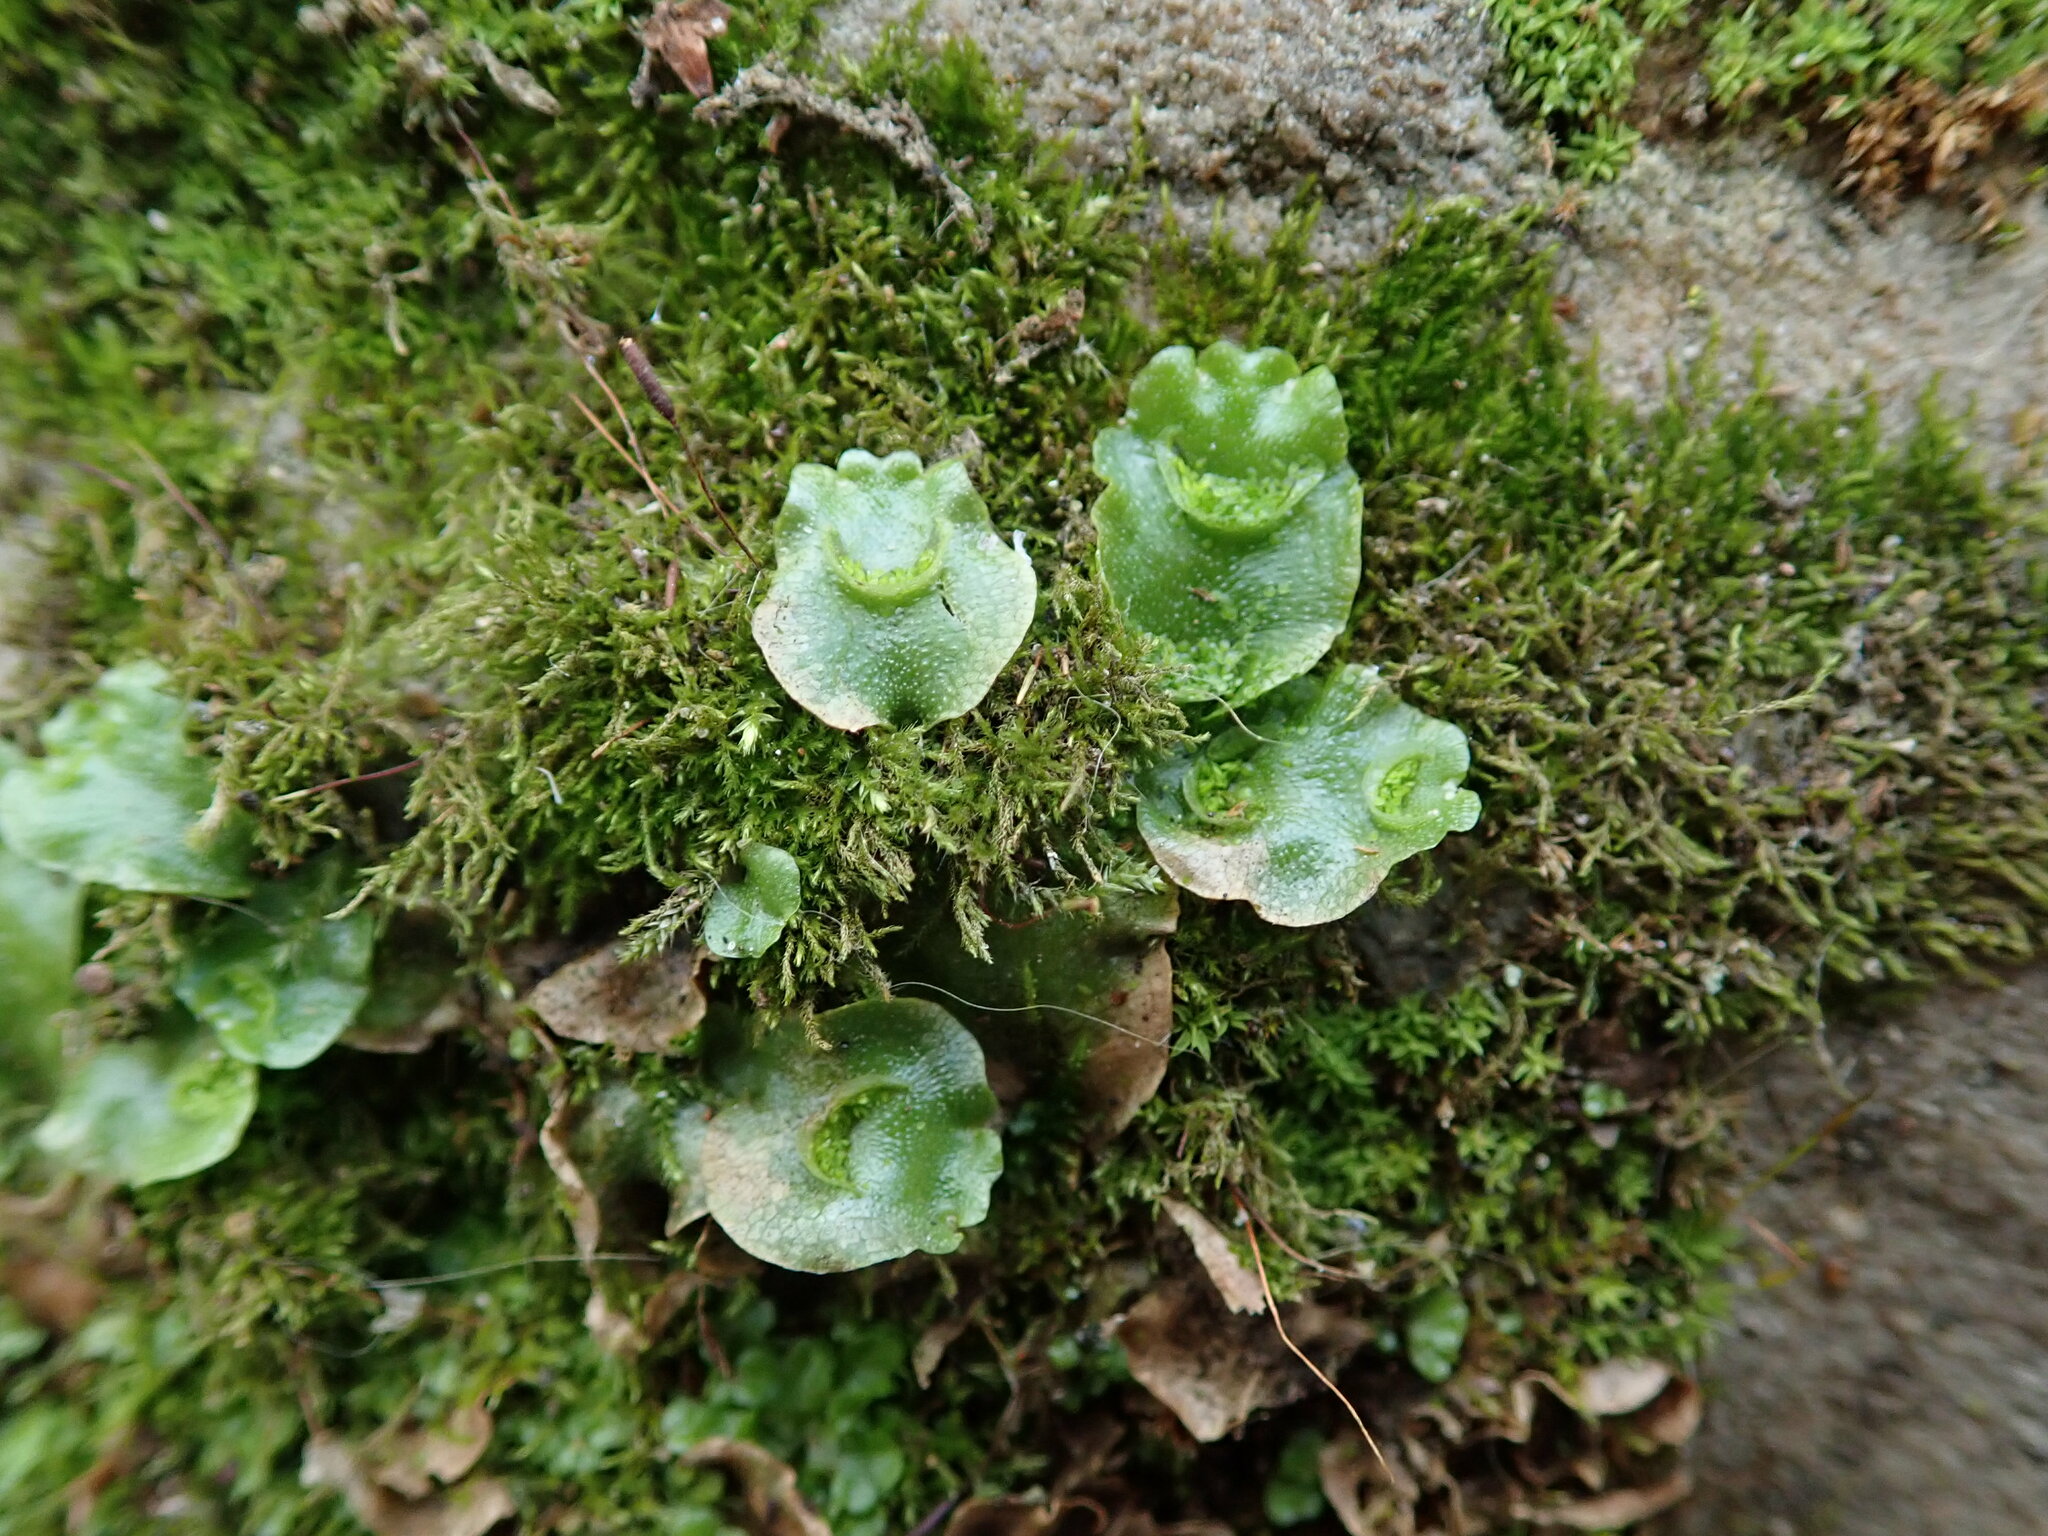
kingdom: Plantae
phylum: Marchantiophyta
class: Marchantiopsida
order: Lunulariales
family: Lunulariaceae
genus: Lunularia
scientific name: Lunularia cruciata
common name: Crescent-cup liverwort
